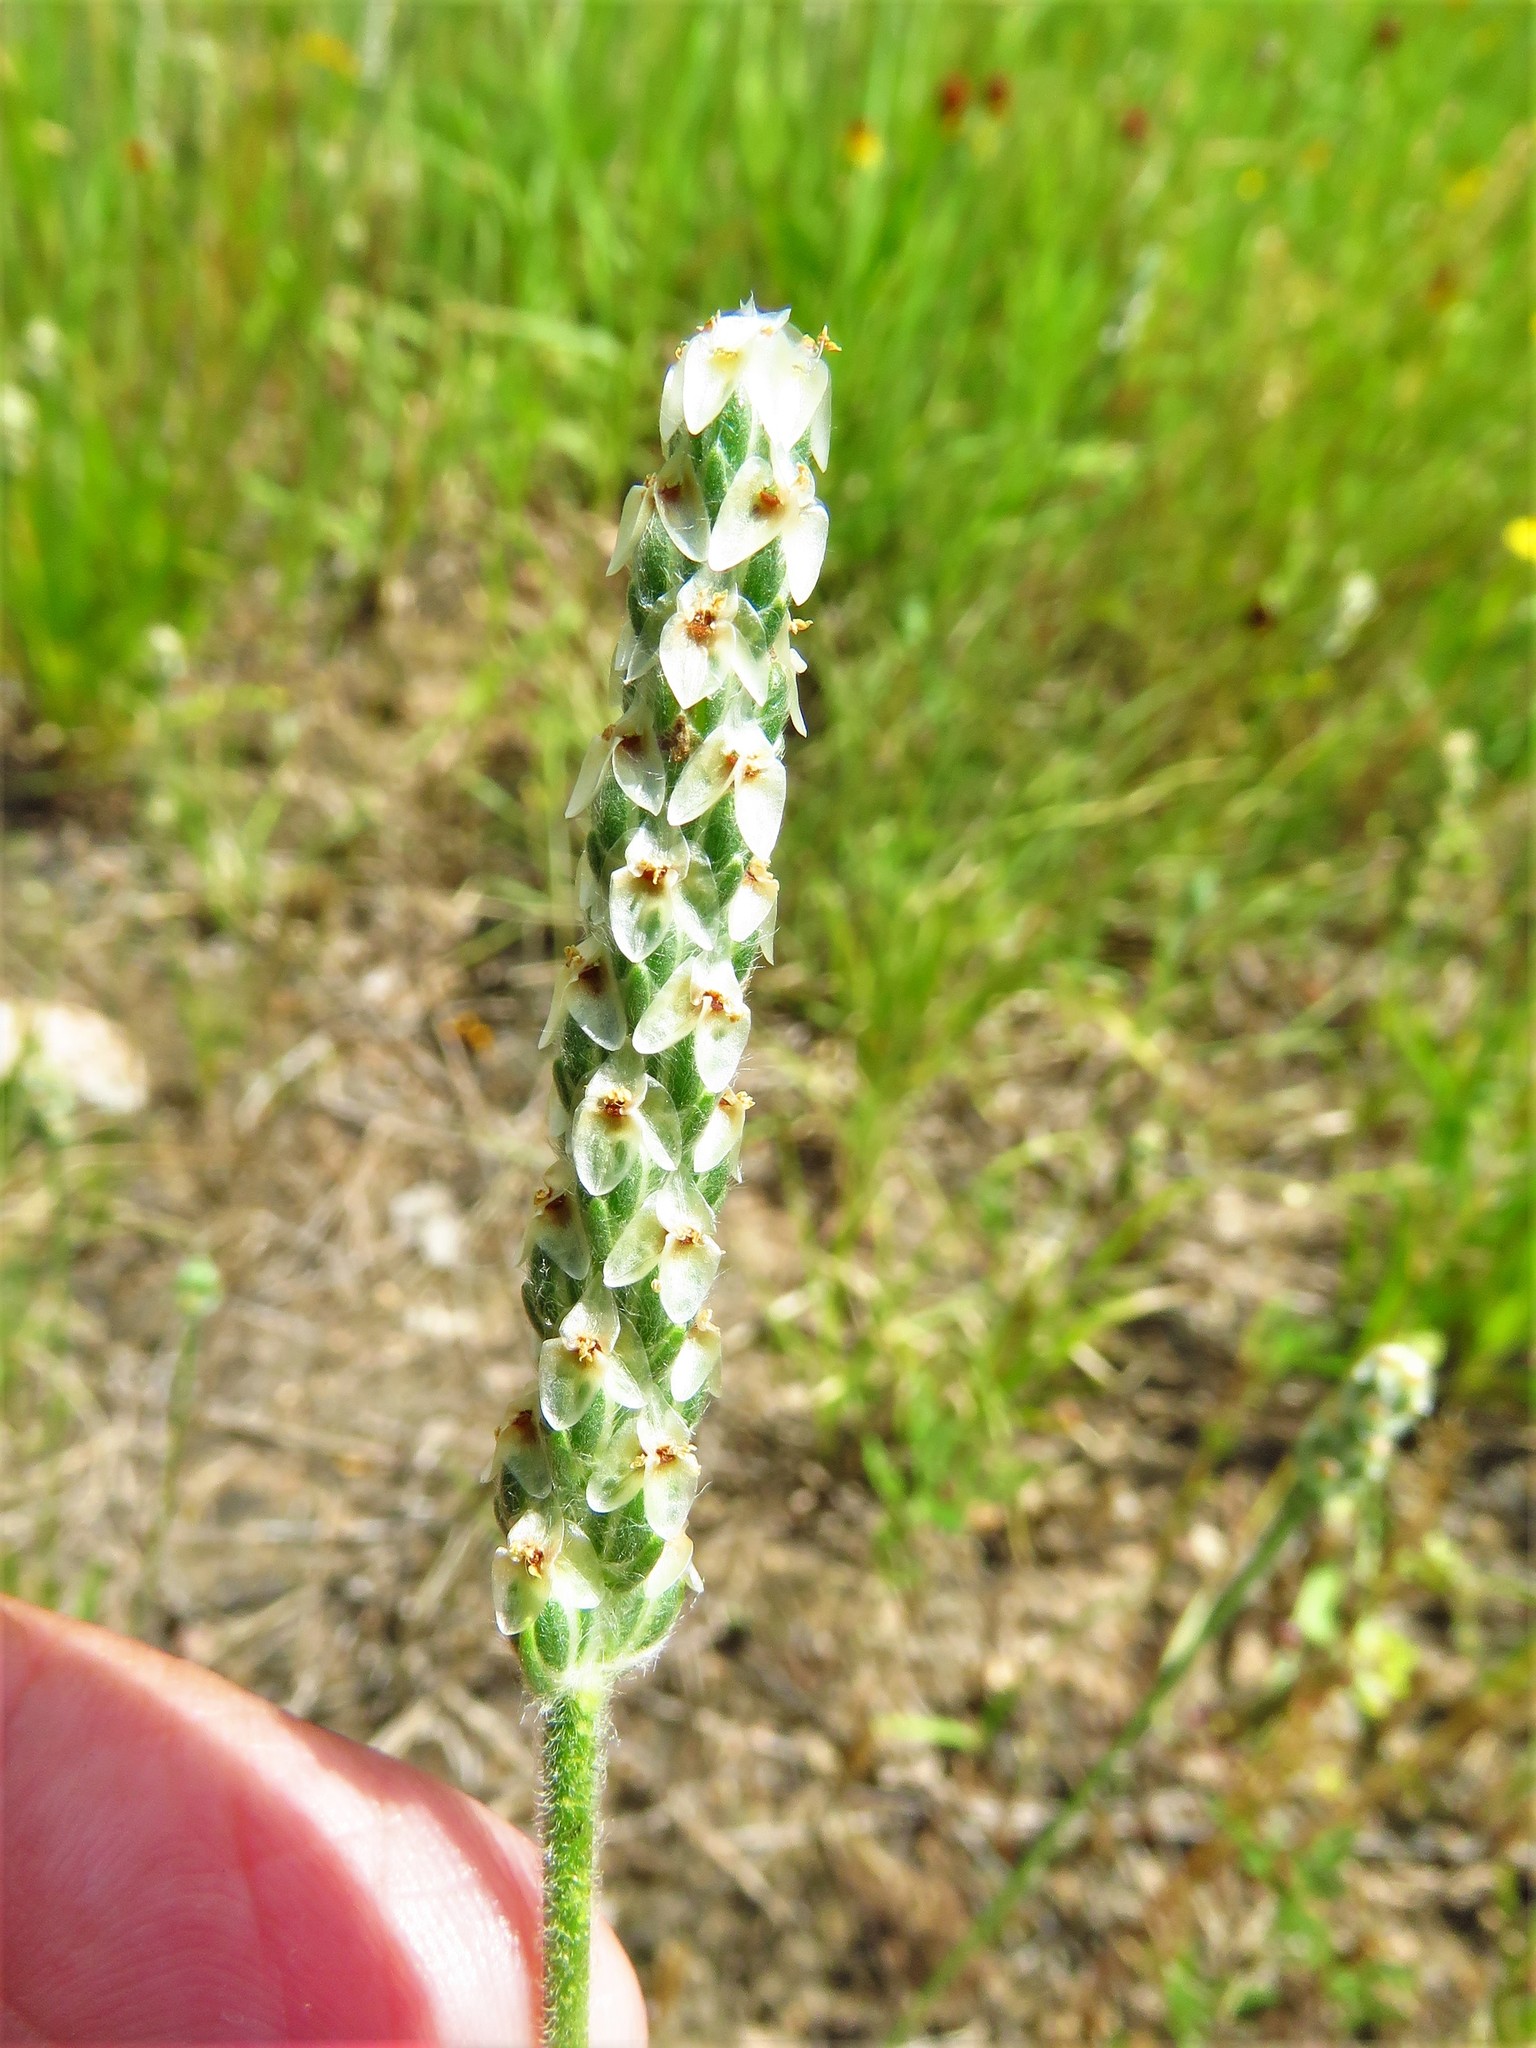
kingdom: Plantae
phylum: Tracheophyta
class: Magnoliopsida
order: Lamiales
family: Plantaginaceae
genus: Plantago
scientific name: Plantago wrightiana
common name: Wright's plantain
